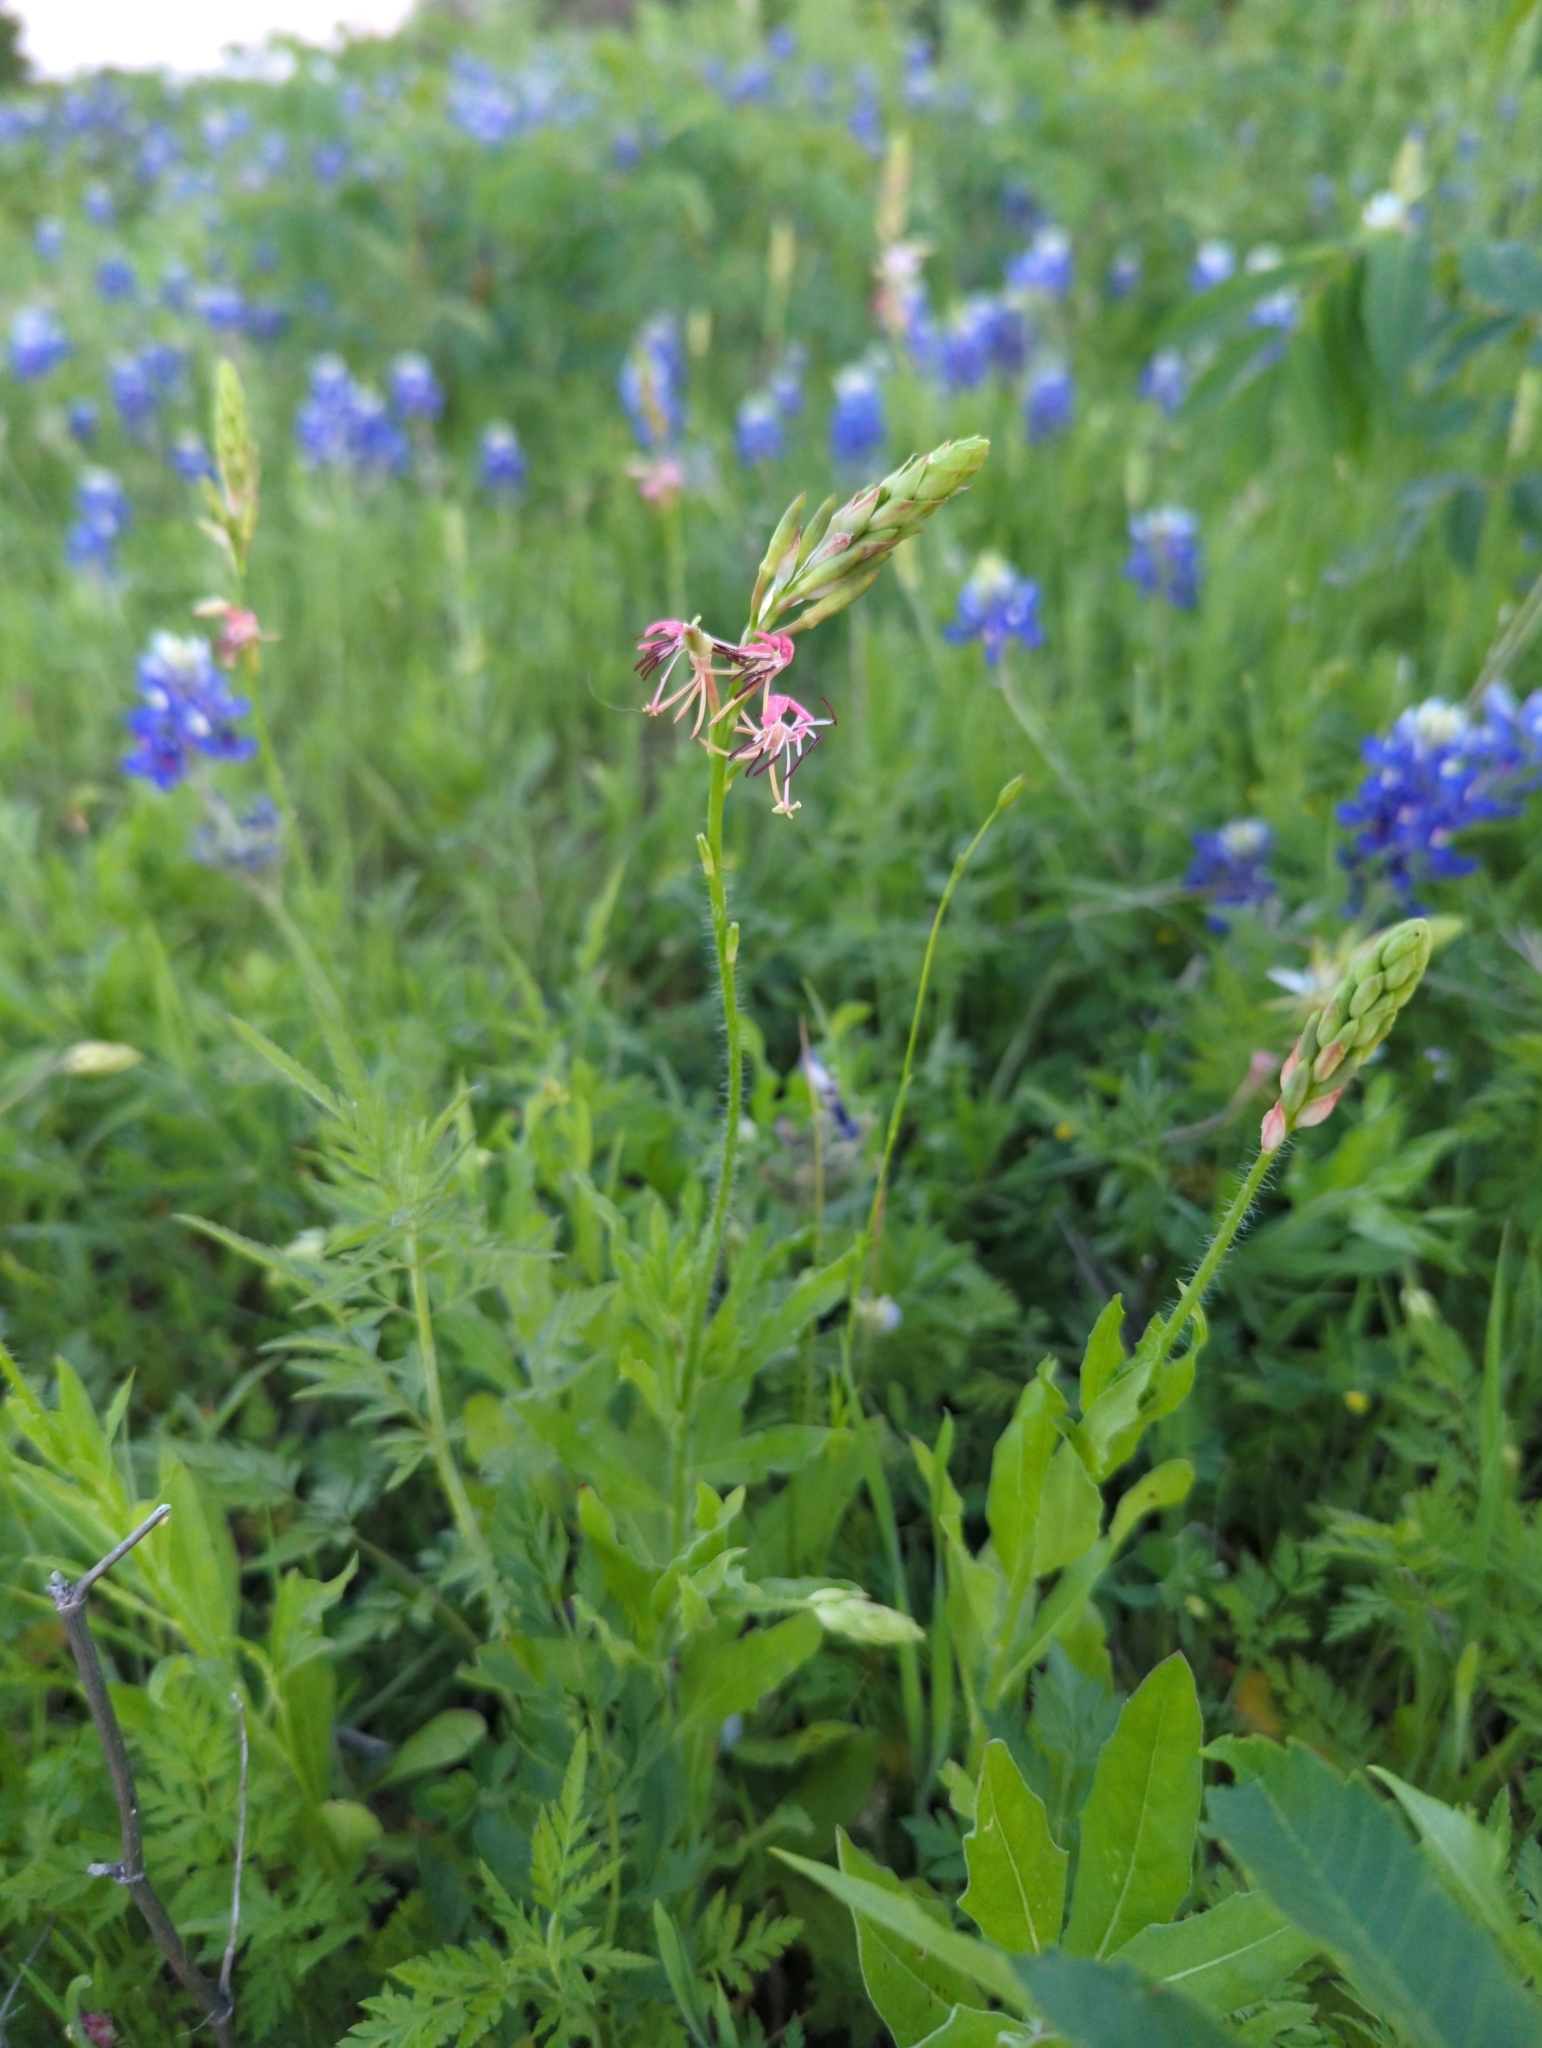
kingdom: Plantae
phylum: Tracheophyta
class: Magnoliopsida
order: Myrtales
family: Onagraceae
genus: Oenothera
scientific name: Oenothera suffulta
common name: Kisses
